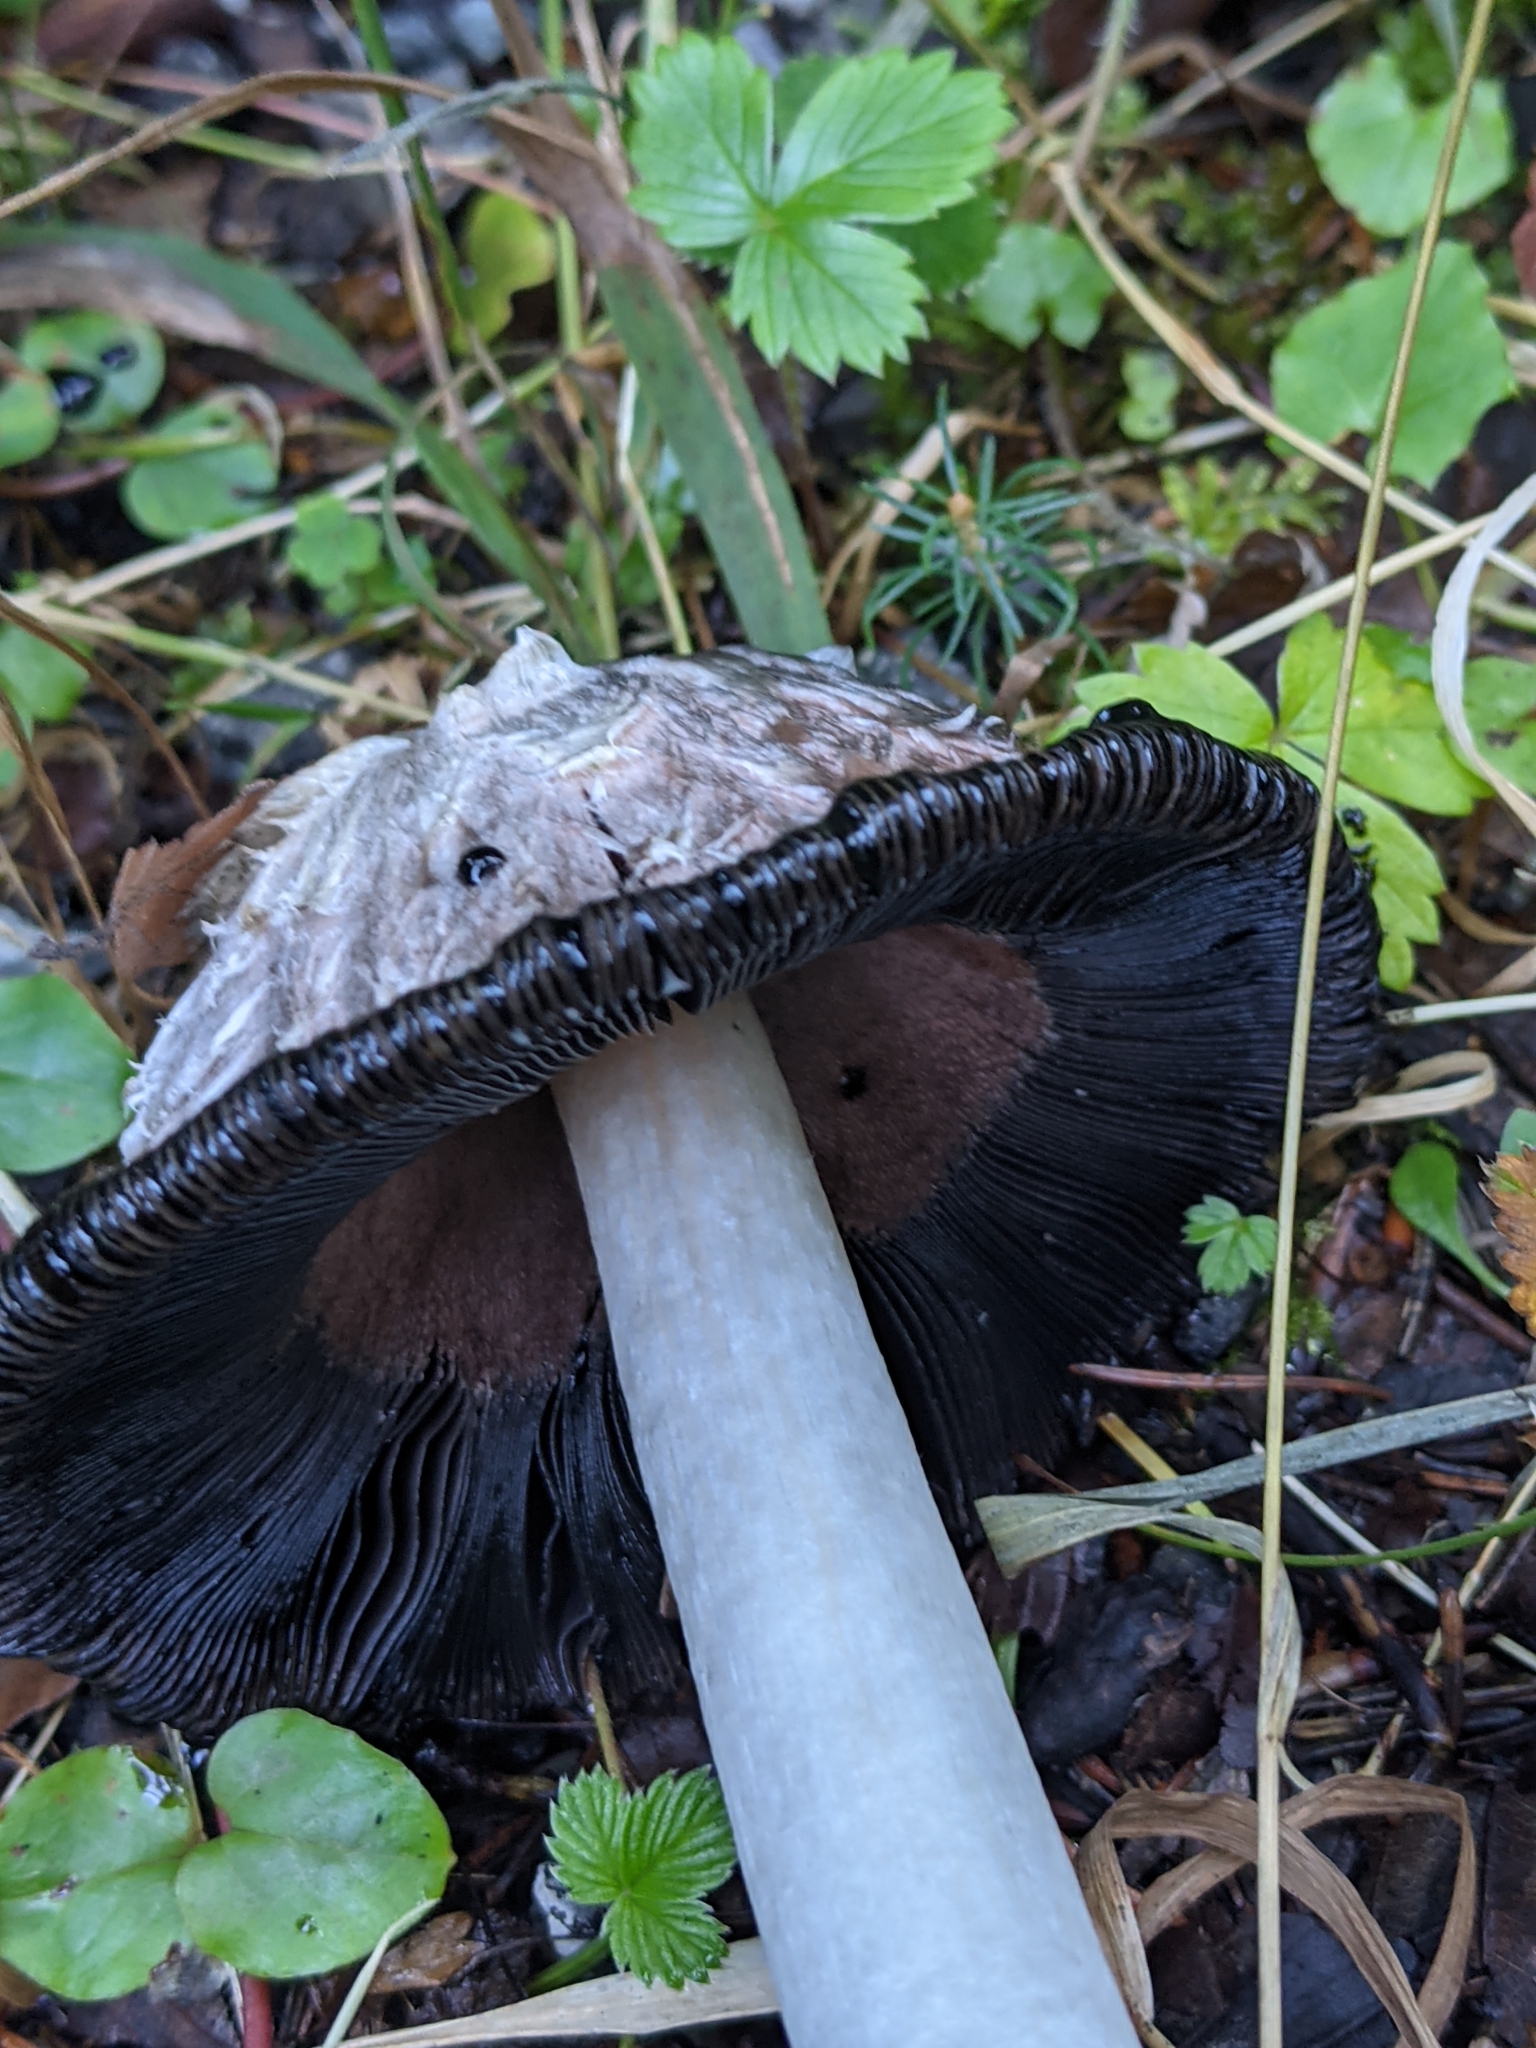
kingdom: Fungi
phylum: Basidiomycota
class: Agaricomycetes
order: Agaricales
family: Agaricaceae
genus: Coprinus
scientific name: Coprinus comatus
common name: Lawyer's wig
